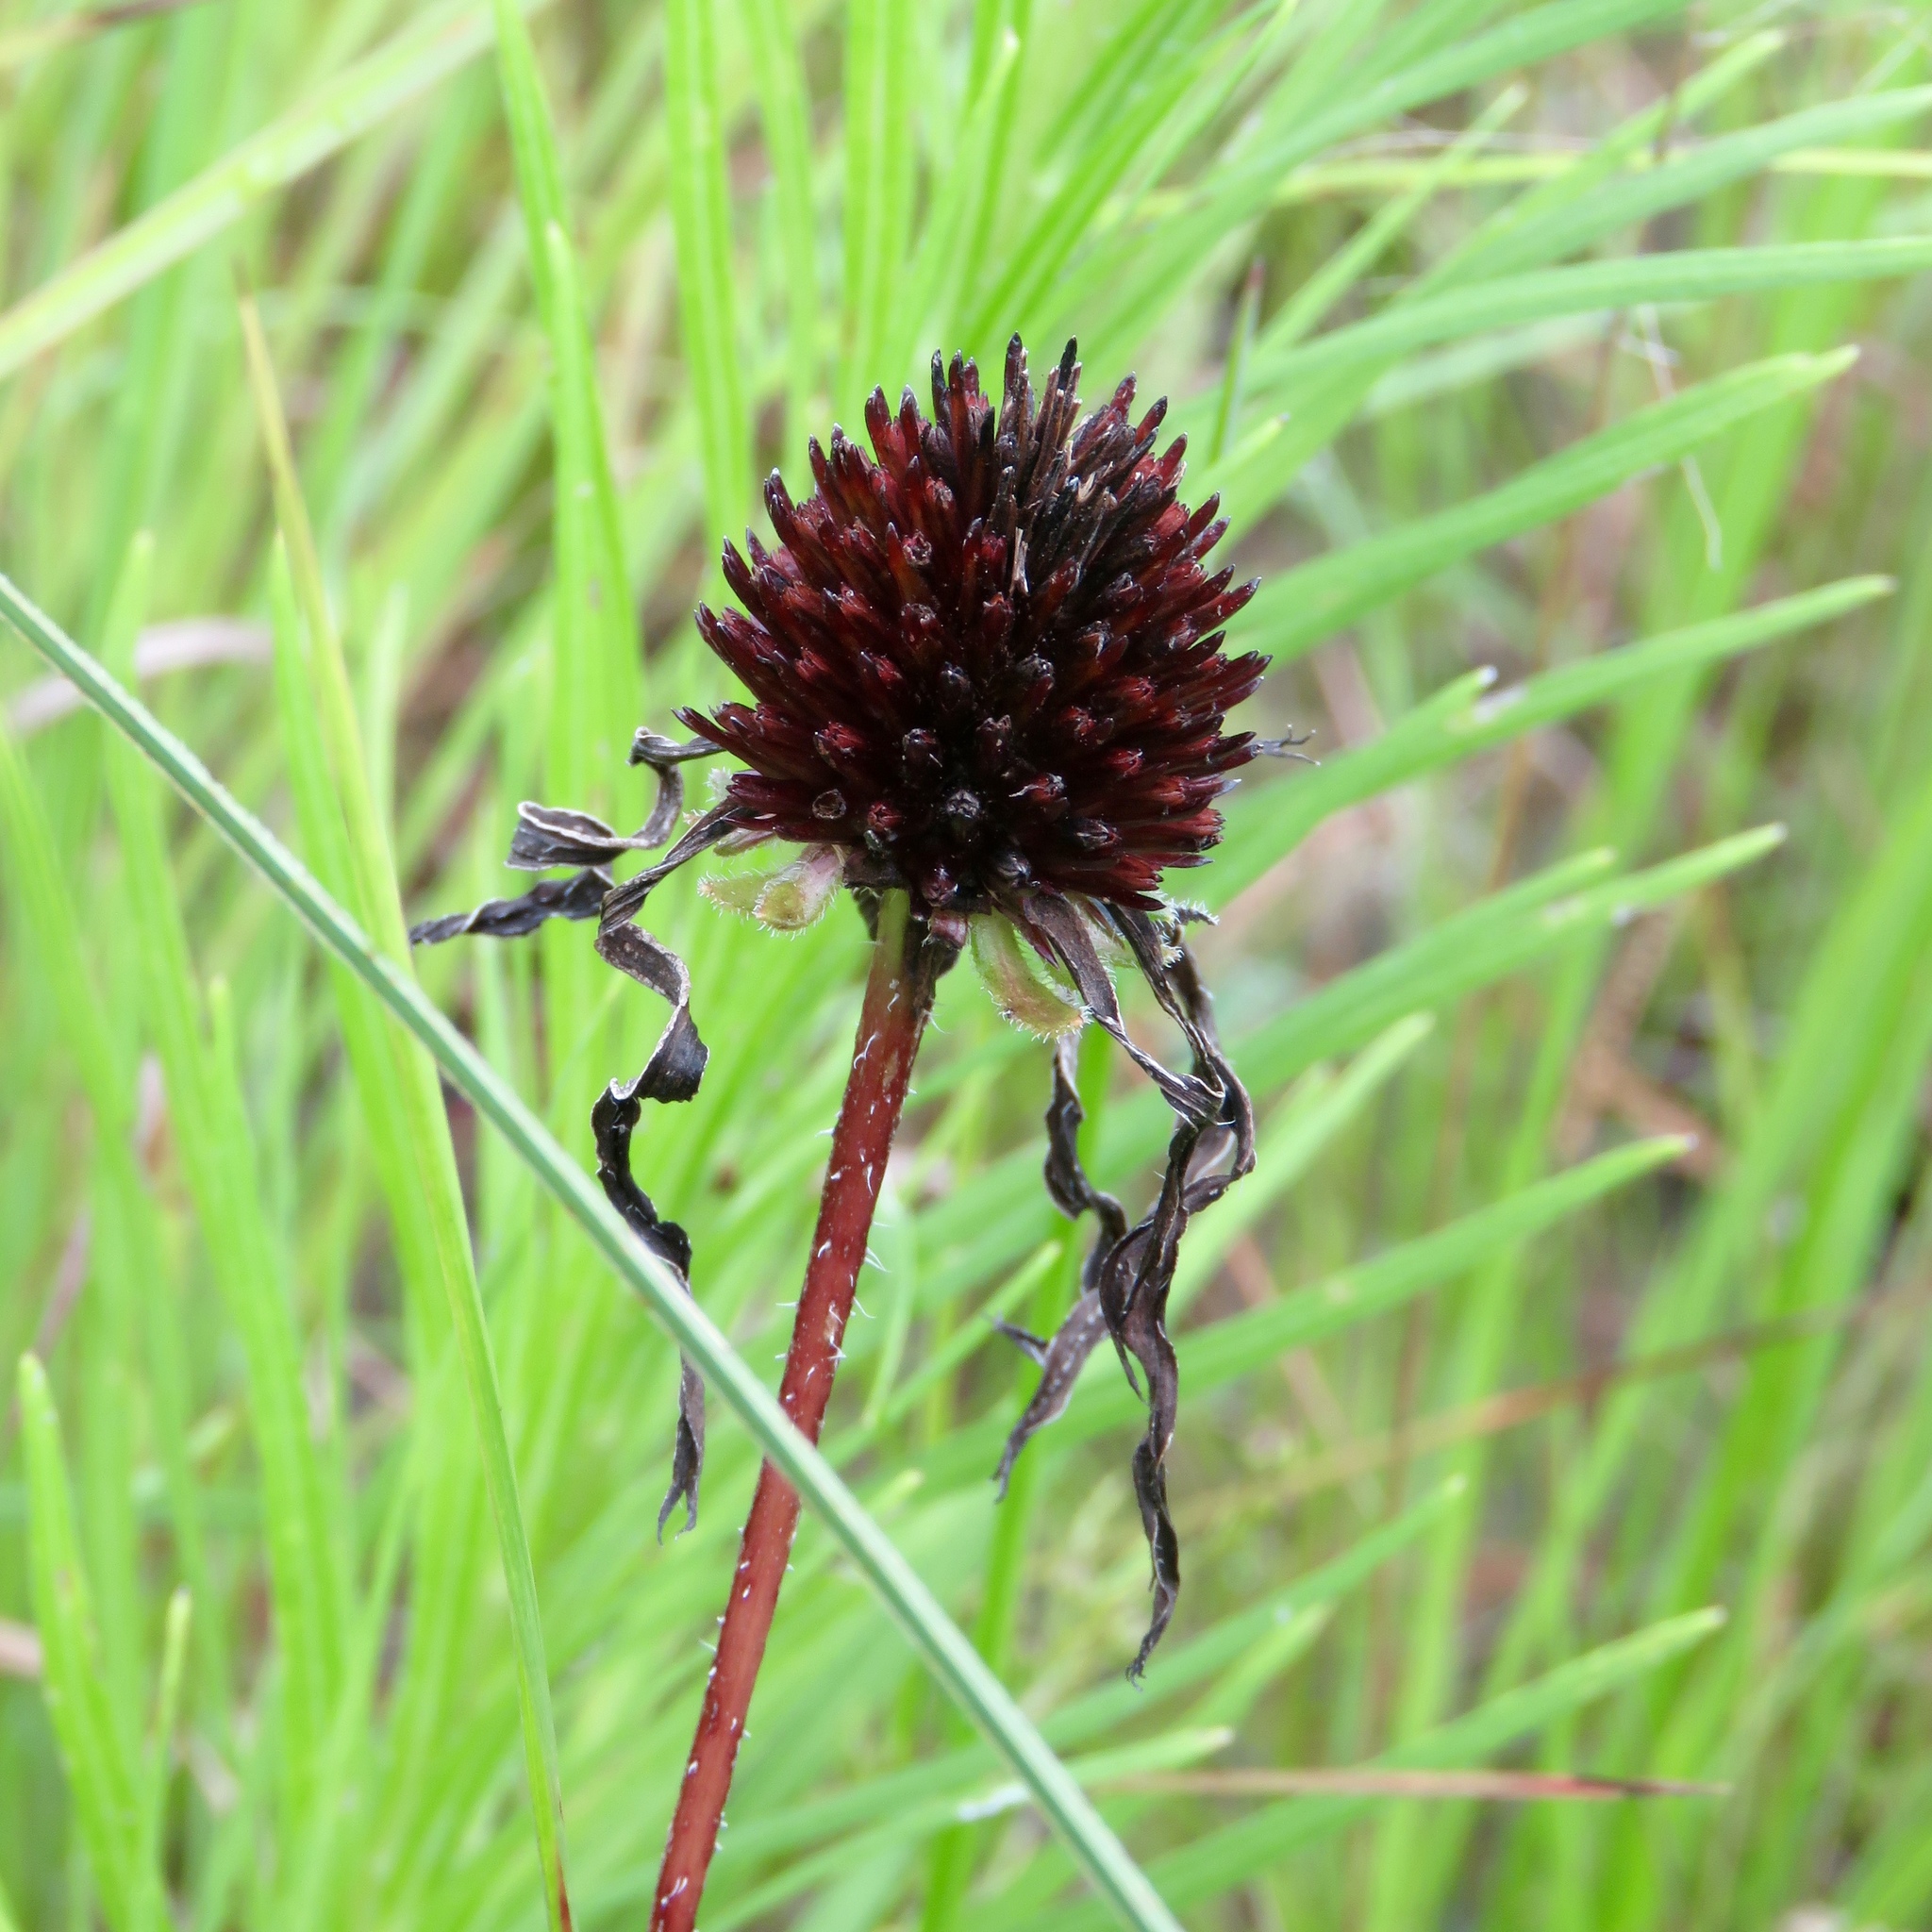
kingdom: Plantae
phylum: Tracheophyta
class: Magnoliopsida
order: Asterales
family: Asteraceae
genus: Echinacea
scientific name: Echinacea sanguinea
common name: Sanguine purple-coneflower
